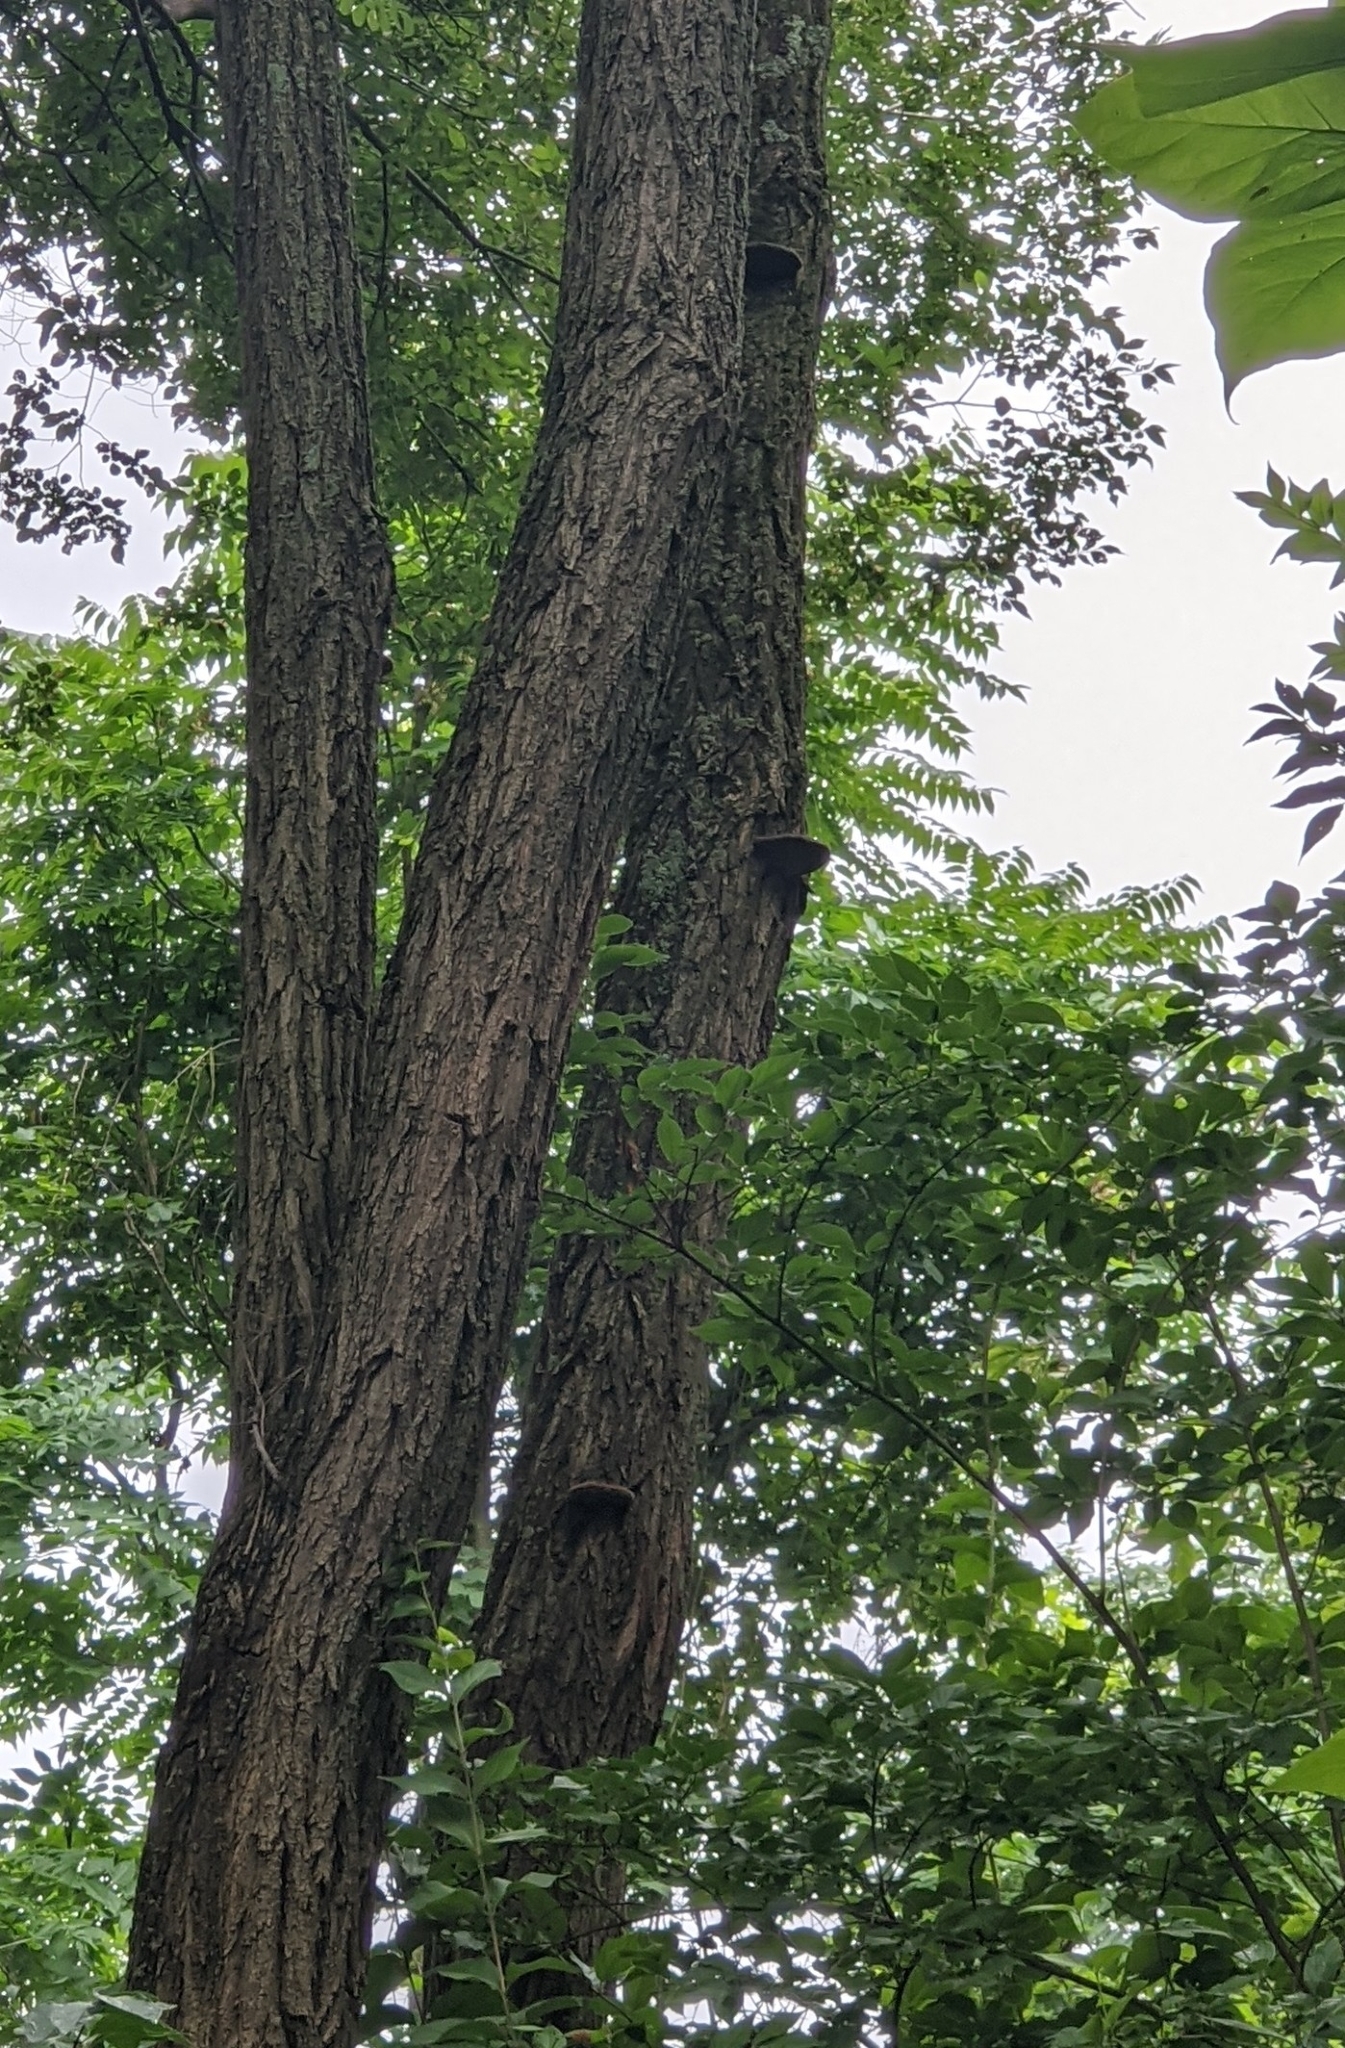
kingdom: Fungi
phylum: Basidiomycota
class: Agaricomycetes
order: Hymenochaetales
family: Hymenochaetaceae
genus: Phellinus
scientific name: Phellinus robiniae
